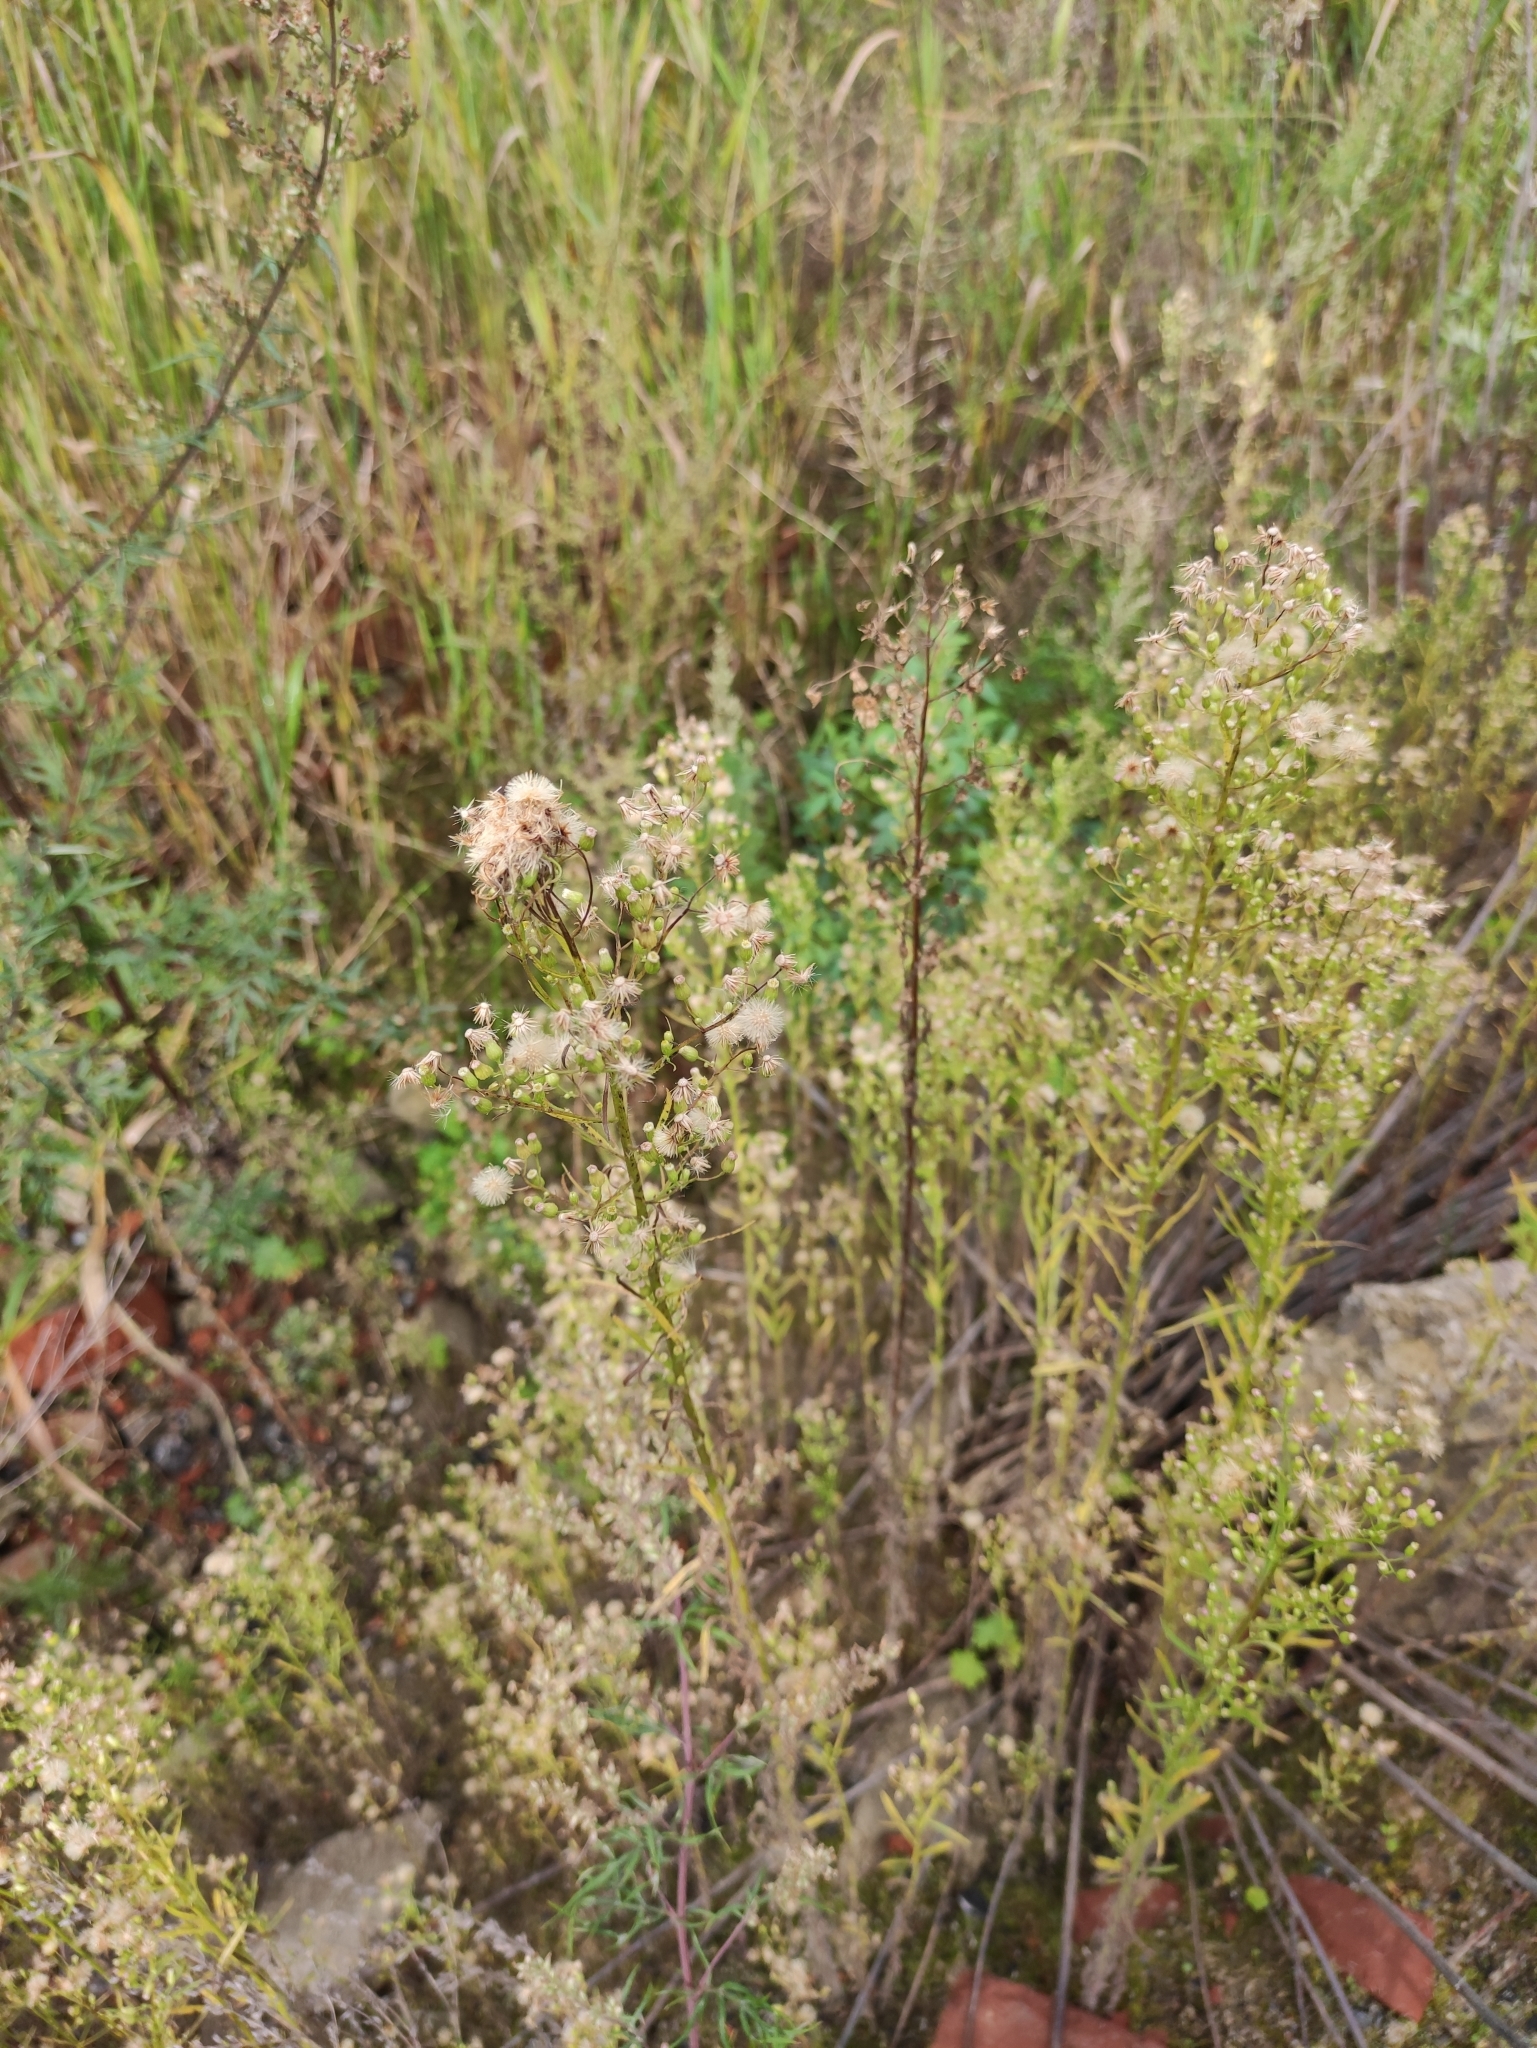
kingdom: Plantae
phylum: Tracheophyta
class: Magnoliopsida
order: Asterales
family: Asteraceae
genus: Erigeron
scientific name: Erigeron canadensis
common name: Canadian fleabane
